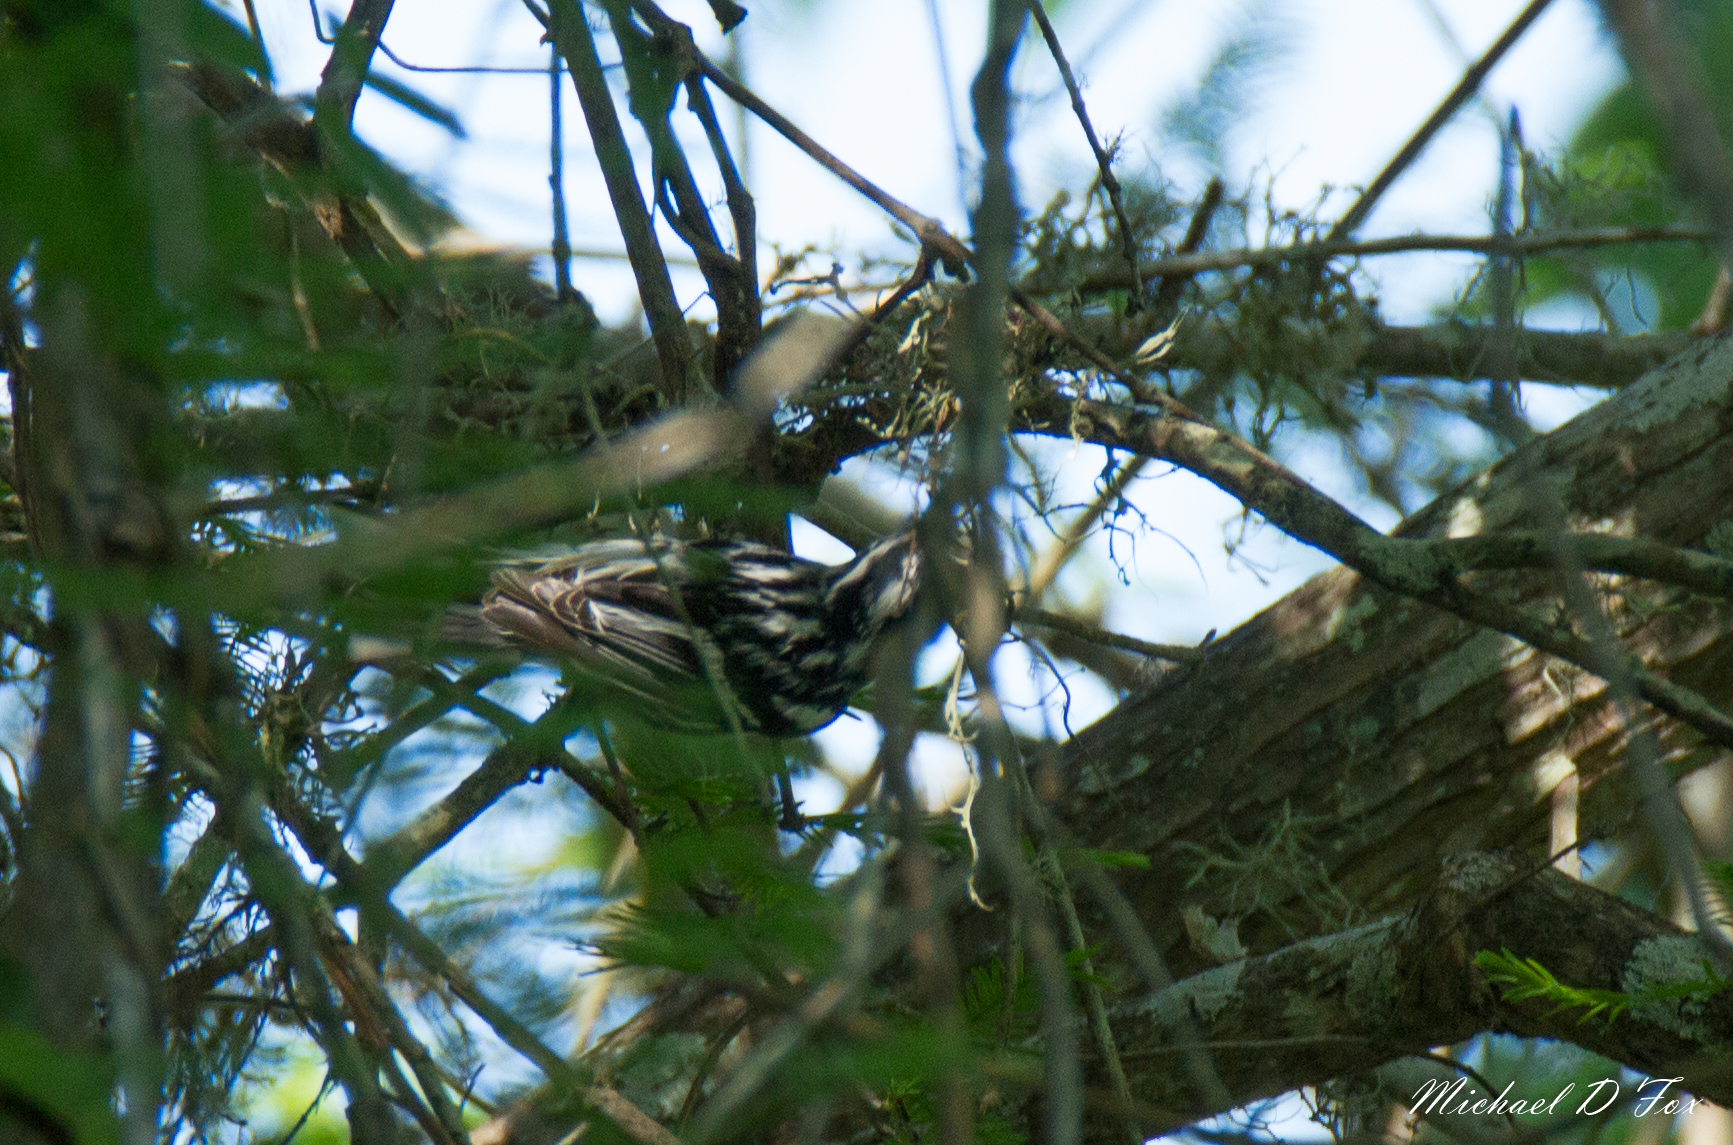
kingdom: Animalia
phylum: Chordata
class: Aves
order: Passeriformes
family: Parulidae
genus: Mniotilta
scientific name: Mniotilta varia
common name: Black-and-white warbler
